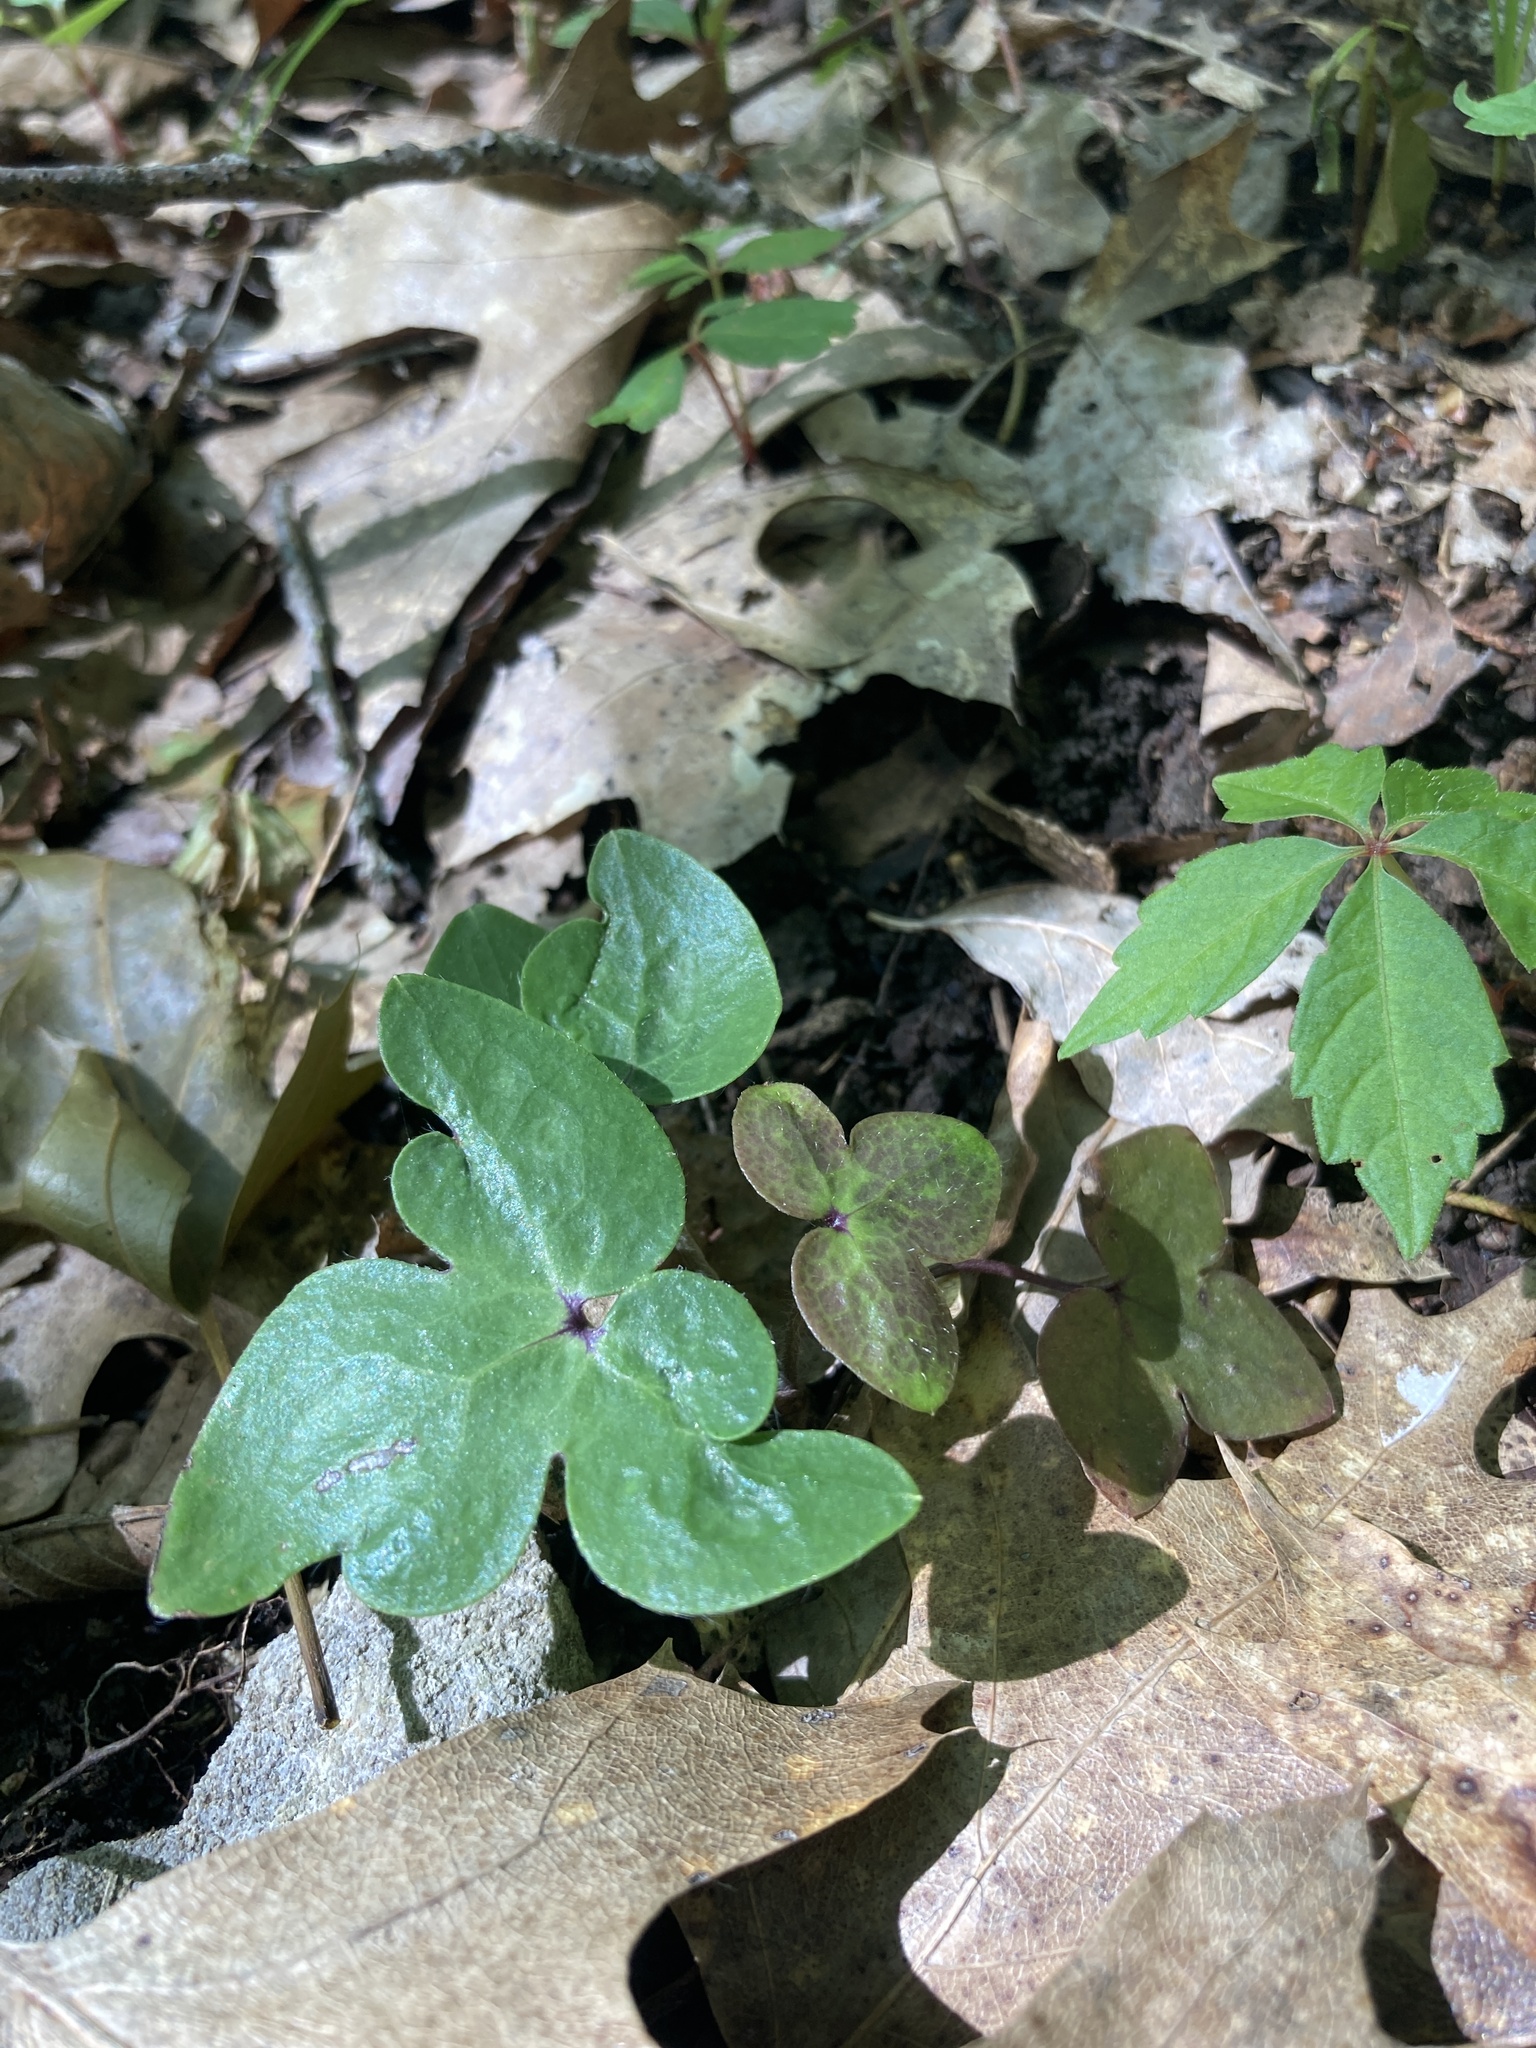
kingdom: Plantae
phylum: Tracheophyta
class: Magnoliopsida
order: Ranunculales
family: Ranunculaceae
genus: Hepatica
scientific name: Hepatica acutiloba
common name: Sharp-lobed hepatica
